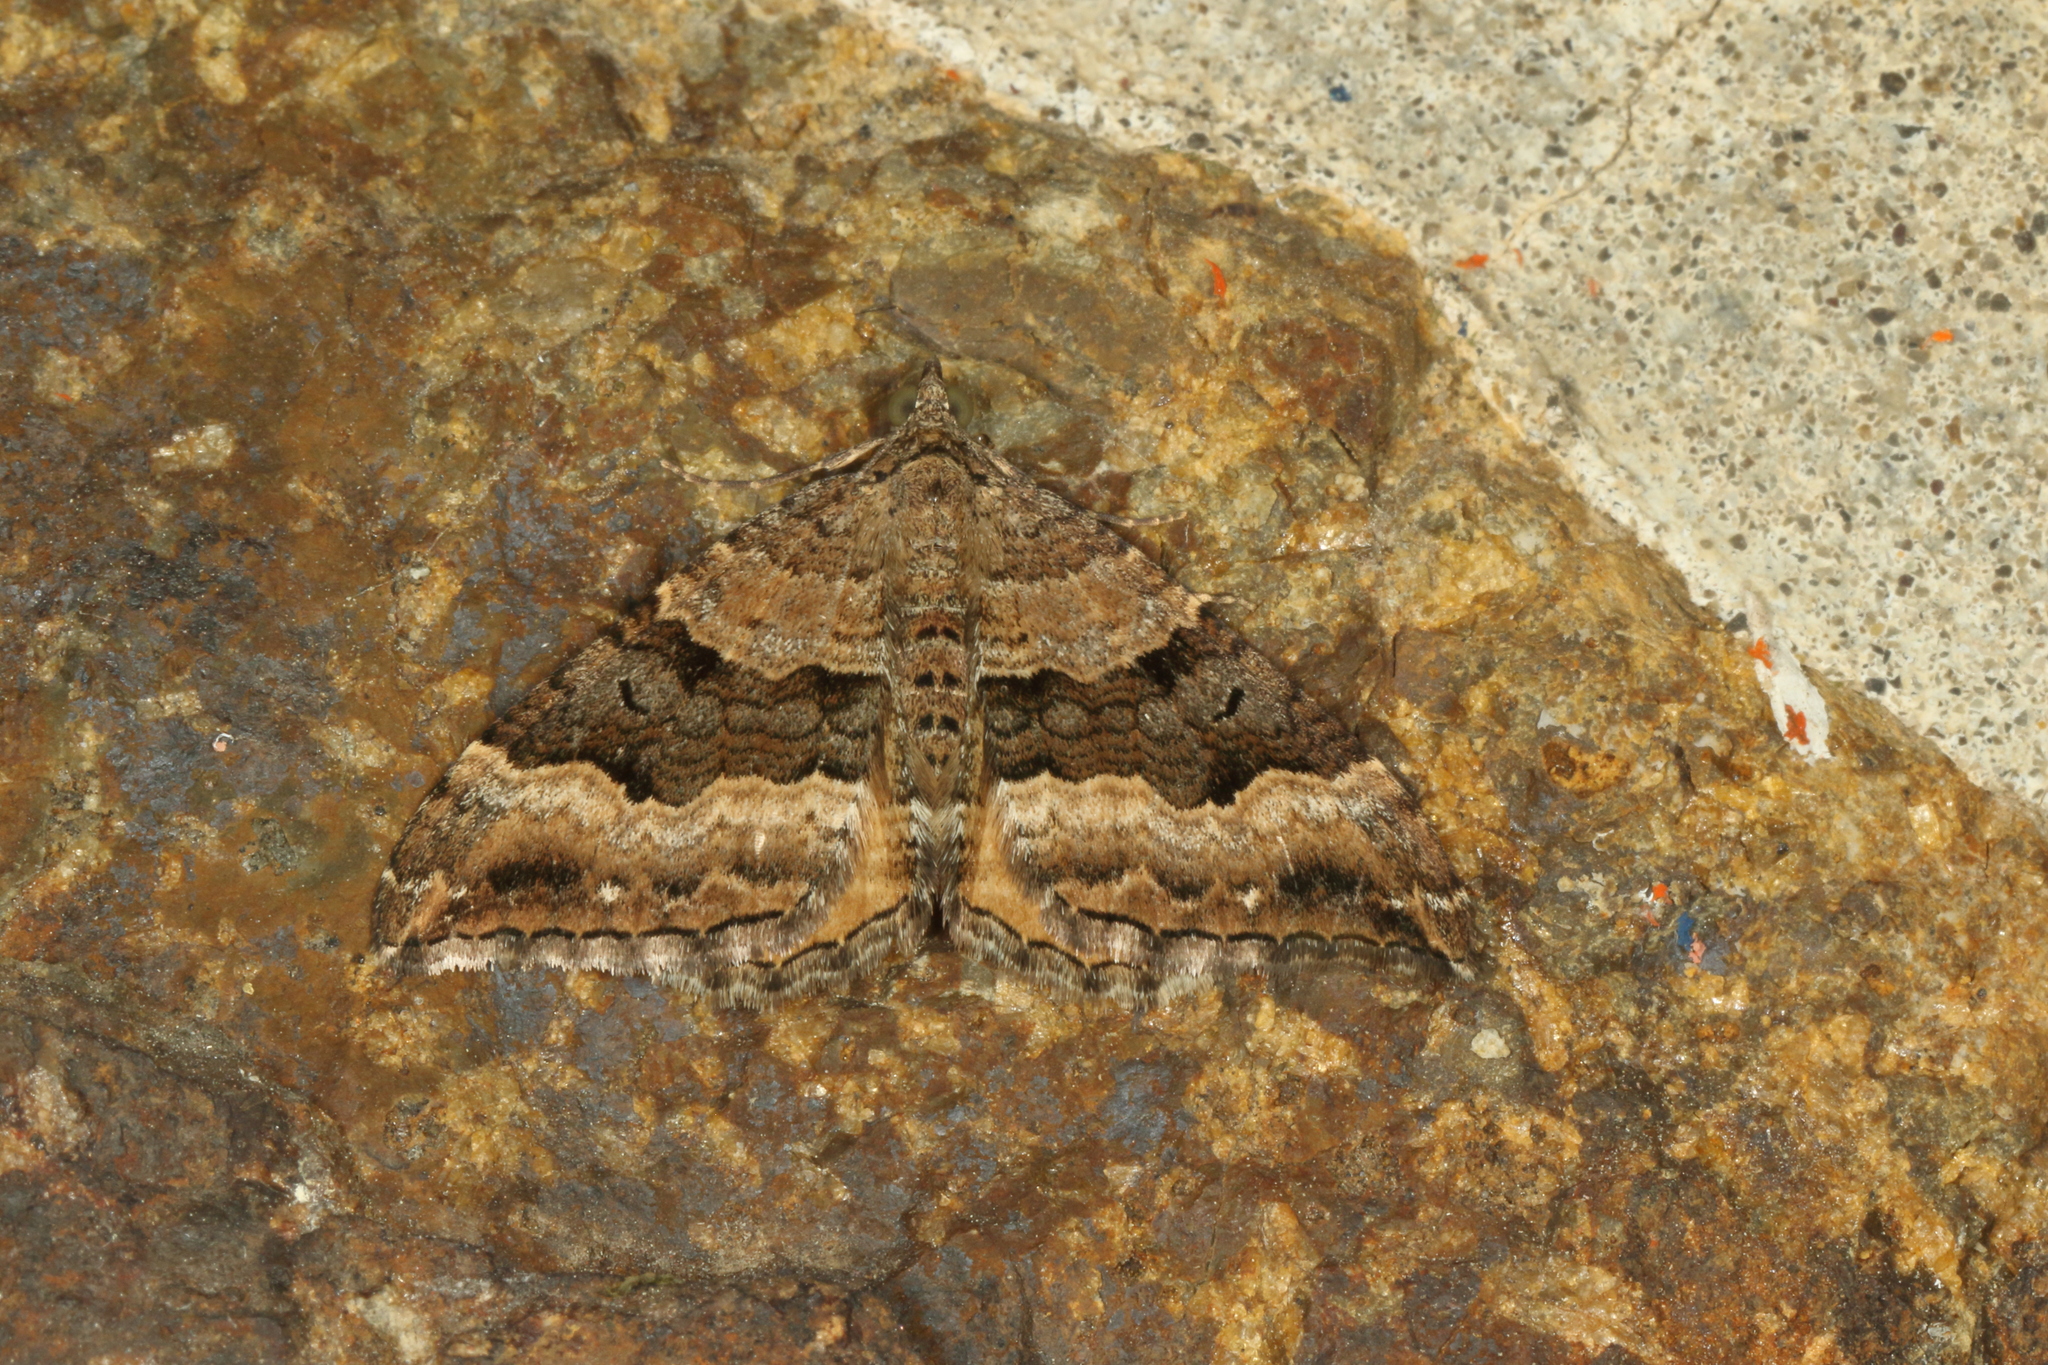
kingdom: Animalia
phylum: Arthropoda
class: Insecta
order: Lepidoptera
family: Geometridae
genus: Hydriomena
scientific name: Hydriomena deltoidata
